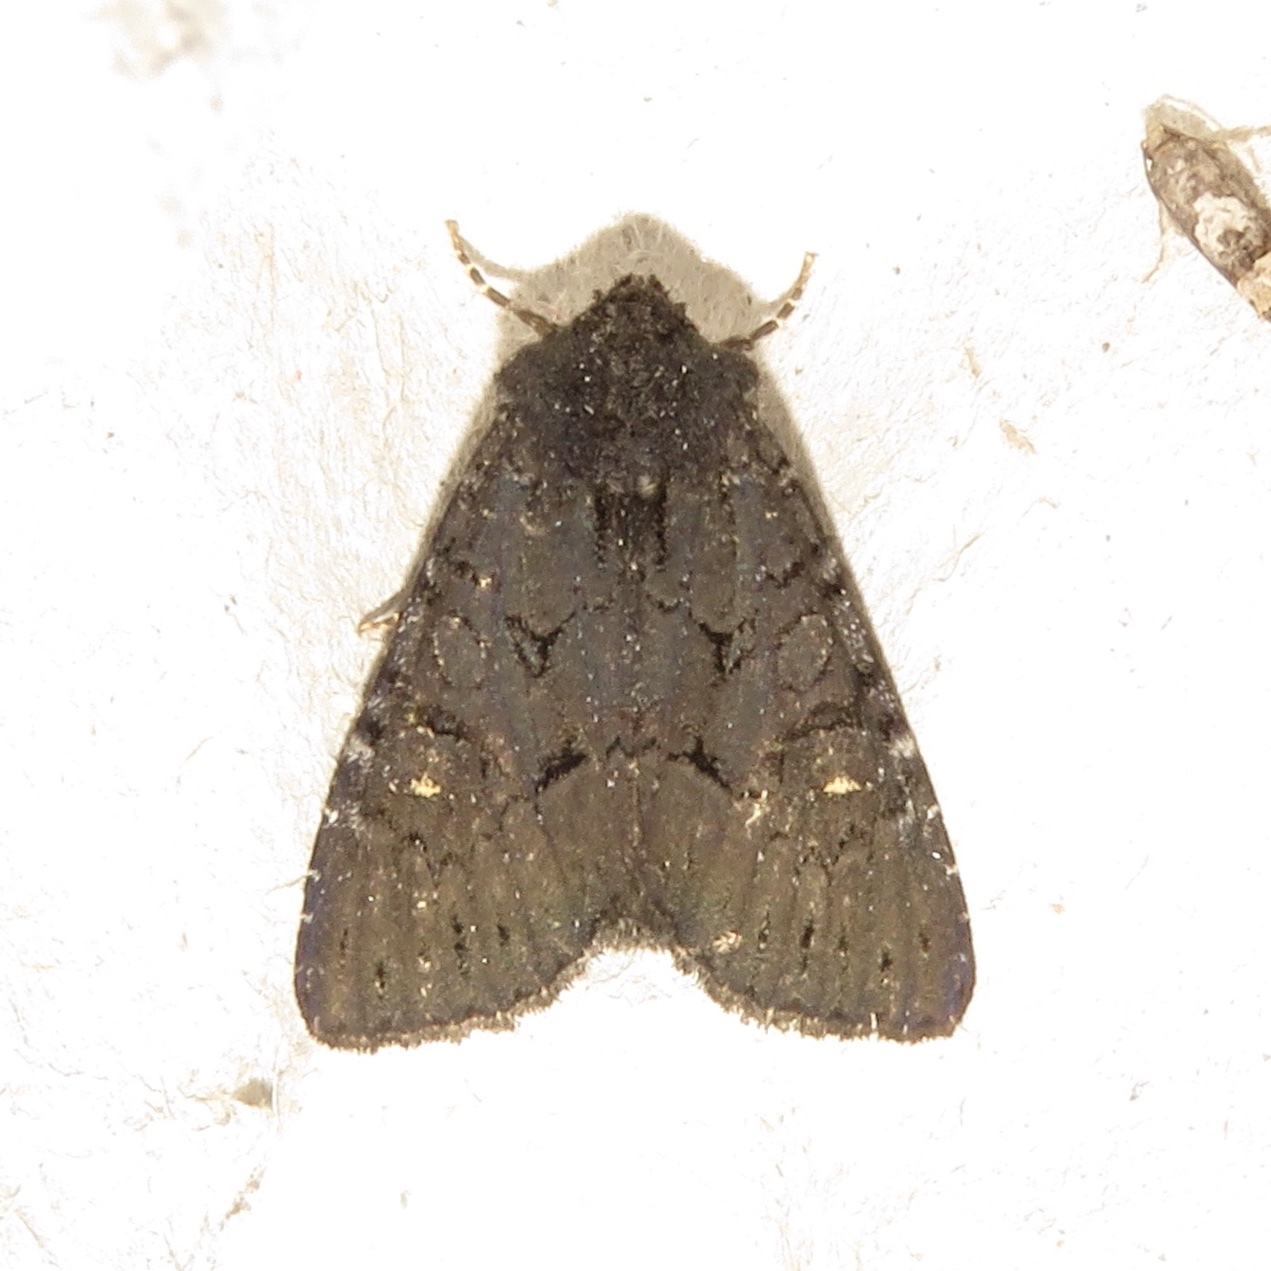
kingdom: Animalia
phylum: Arthropoda
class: Insecta
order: Lepidoptera
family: Noctuidae
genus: Apamea
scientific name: Apamea impulsa
